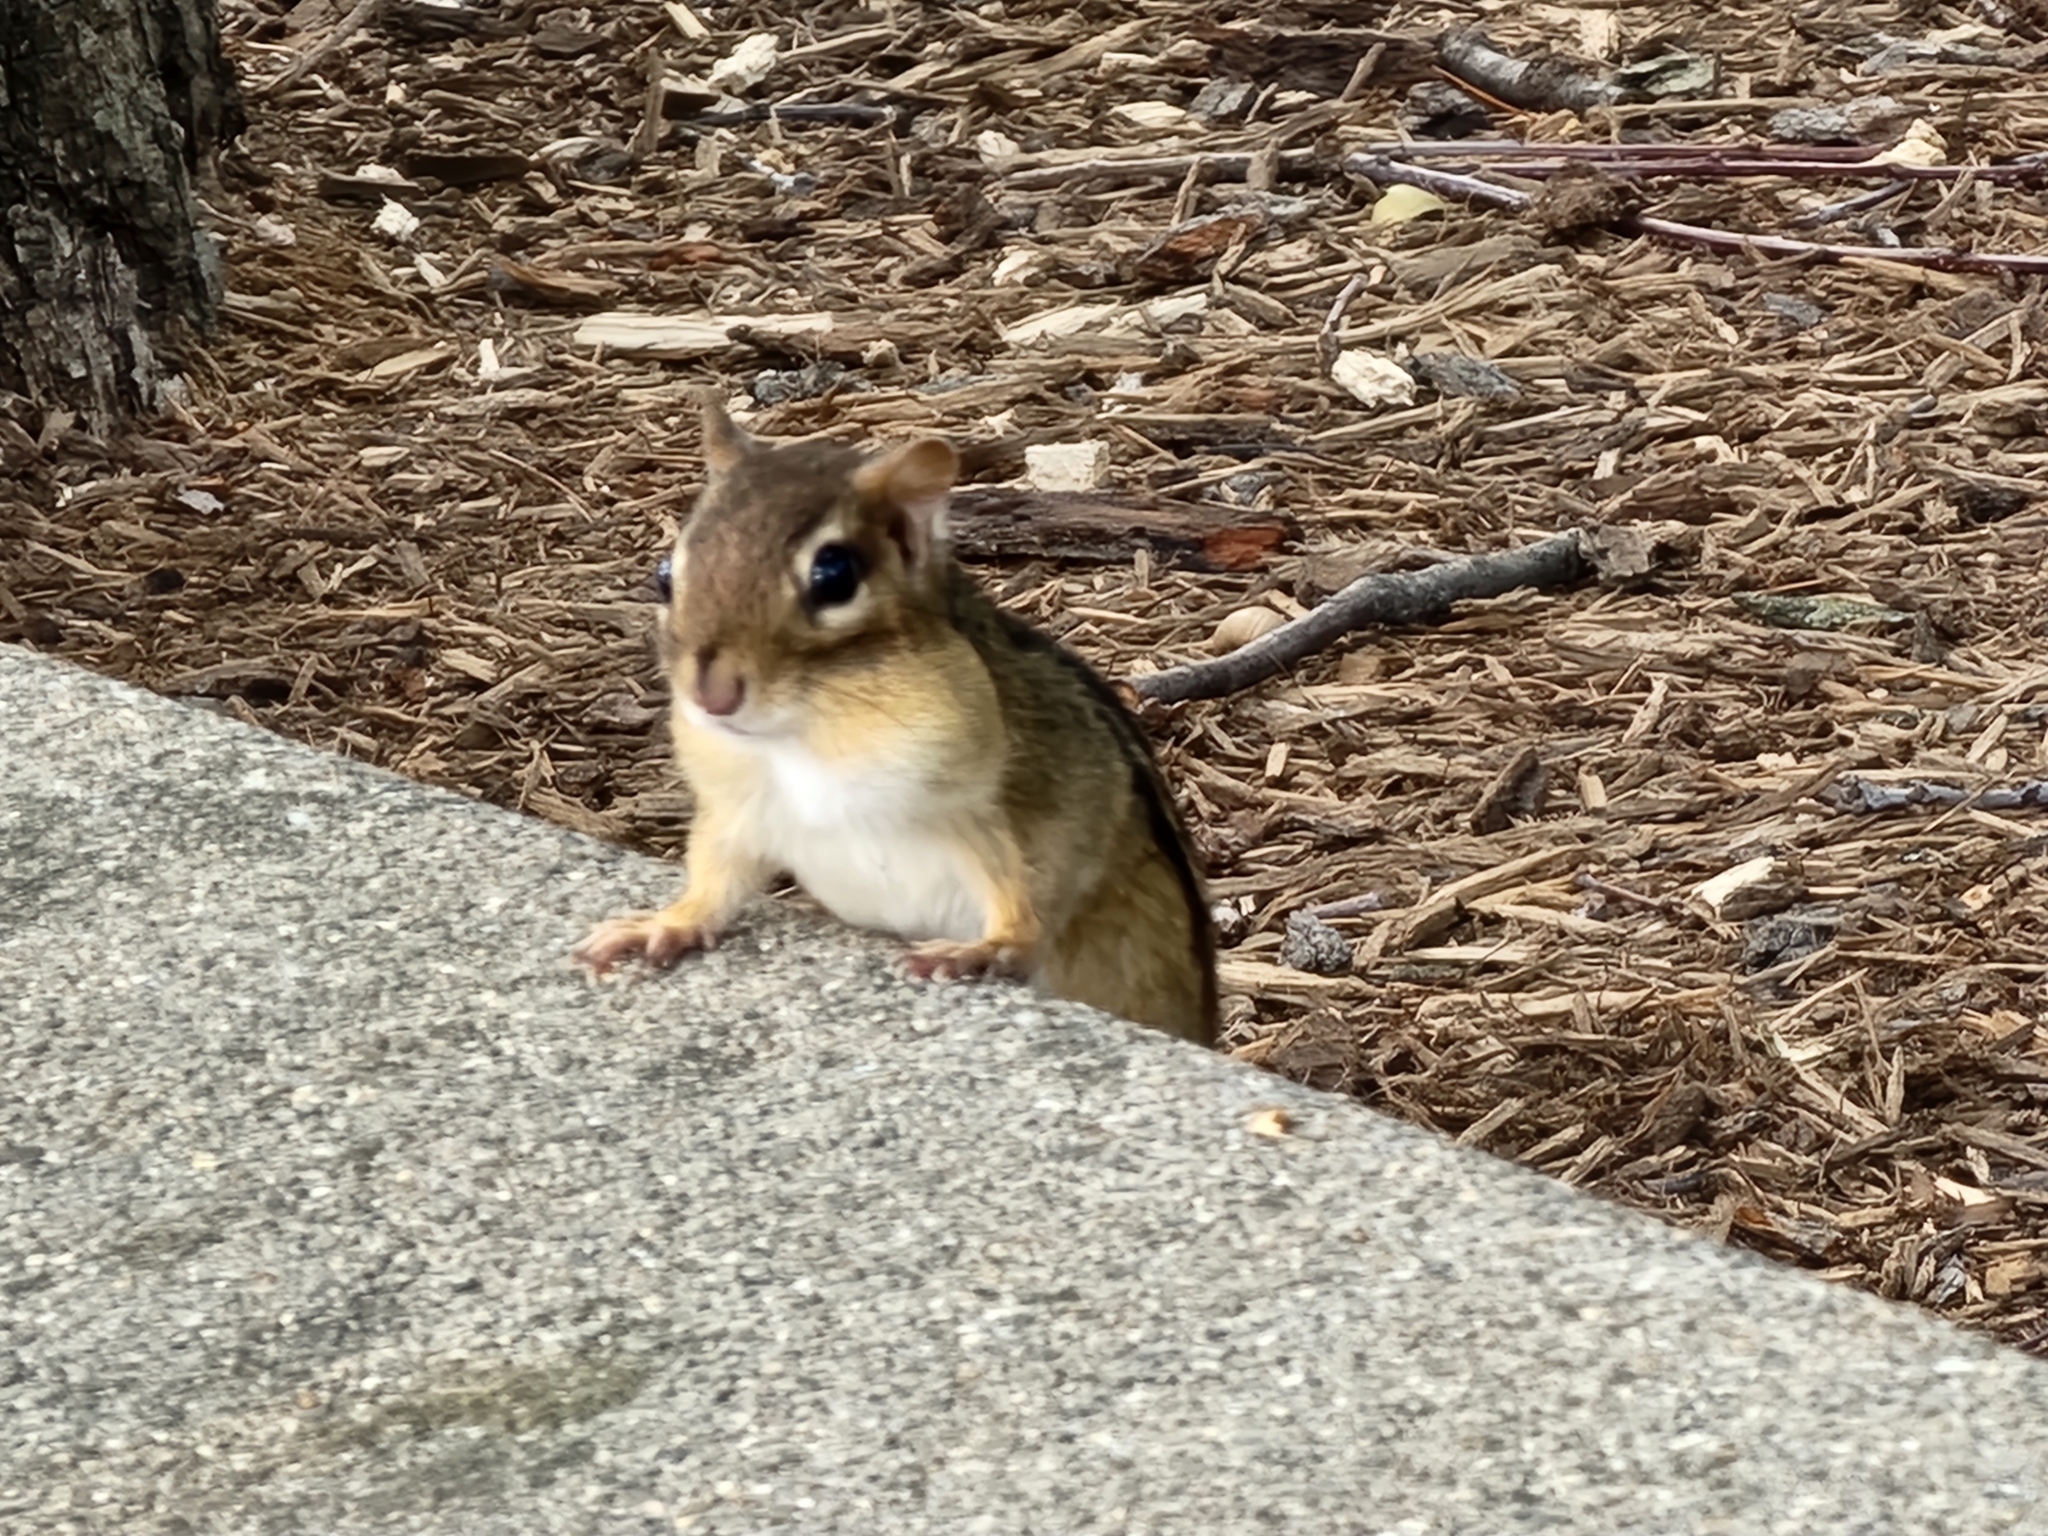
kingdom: Animalia
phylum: Chordata
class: Mammalia
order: Rodentia
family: Sciuridae
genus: Tamias
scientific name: Tamias striatus
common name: Eastern chipmunk
